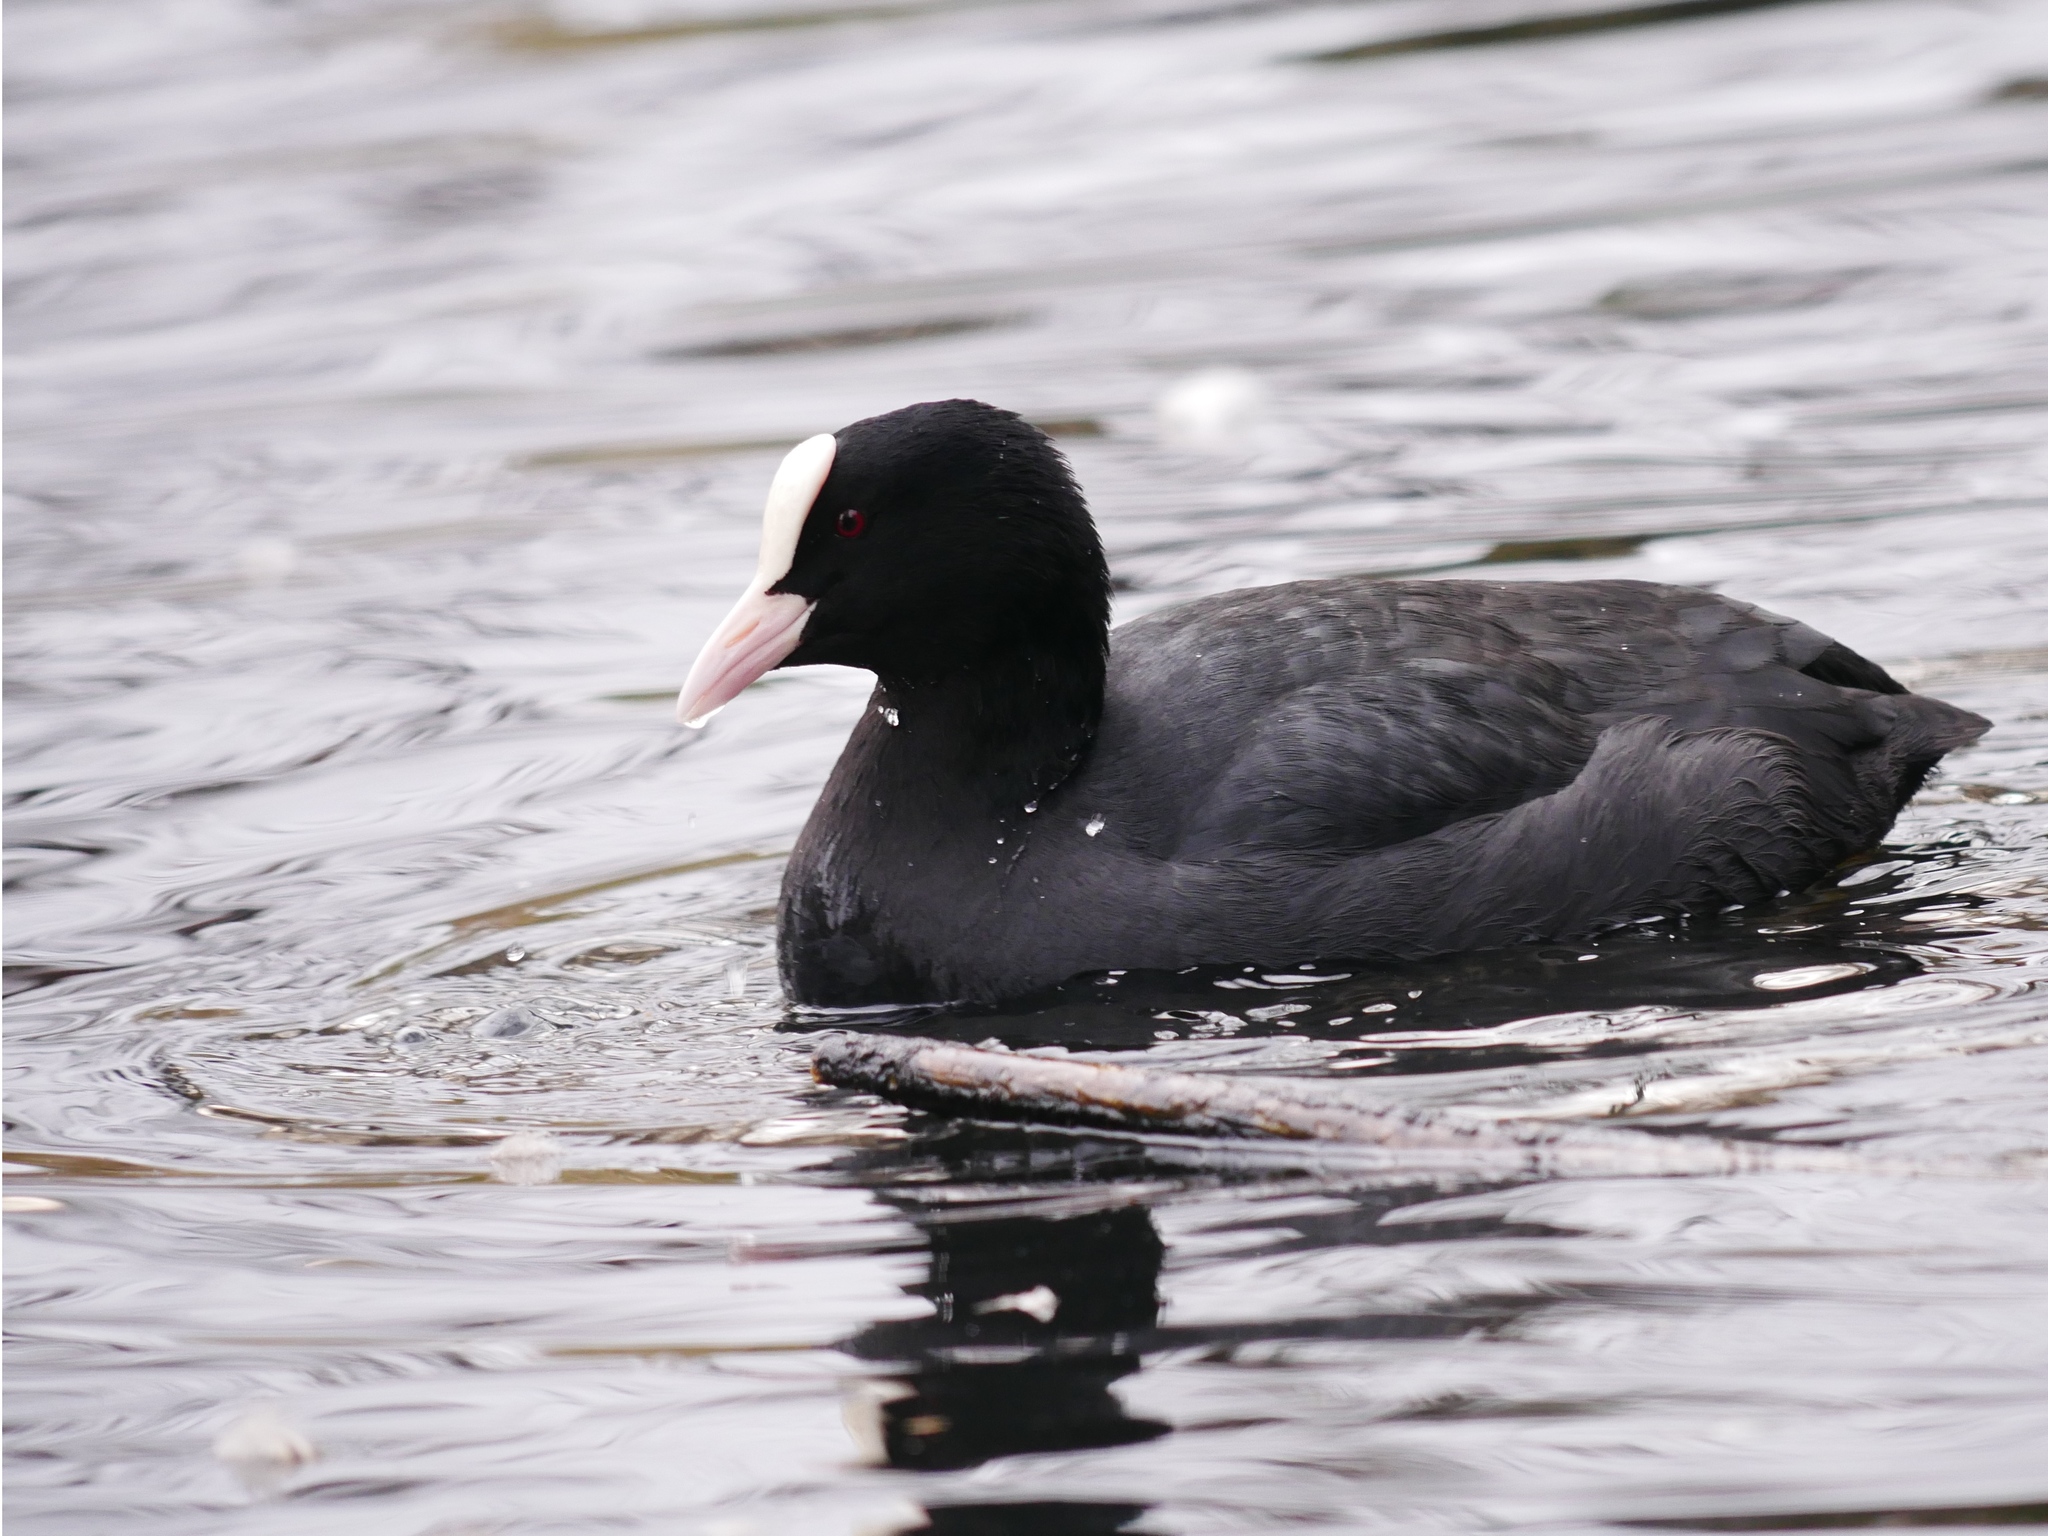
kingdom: Animalia
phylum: Chordata
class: Aves
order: Gruiformes
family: Rallidae
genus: Fulica
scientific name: Fulica atra
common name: Eurasian coot
